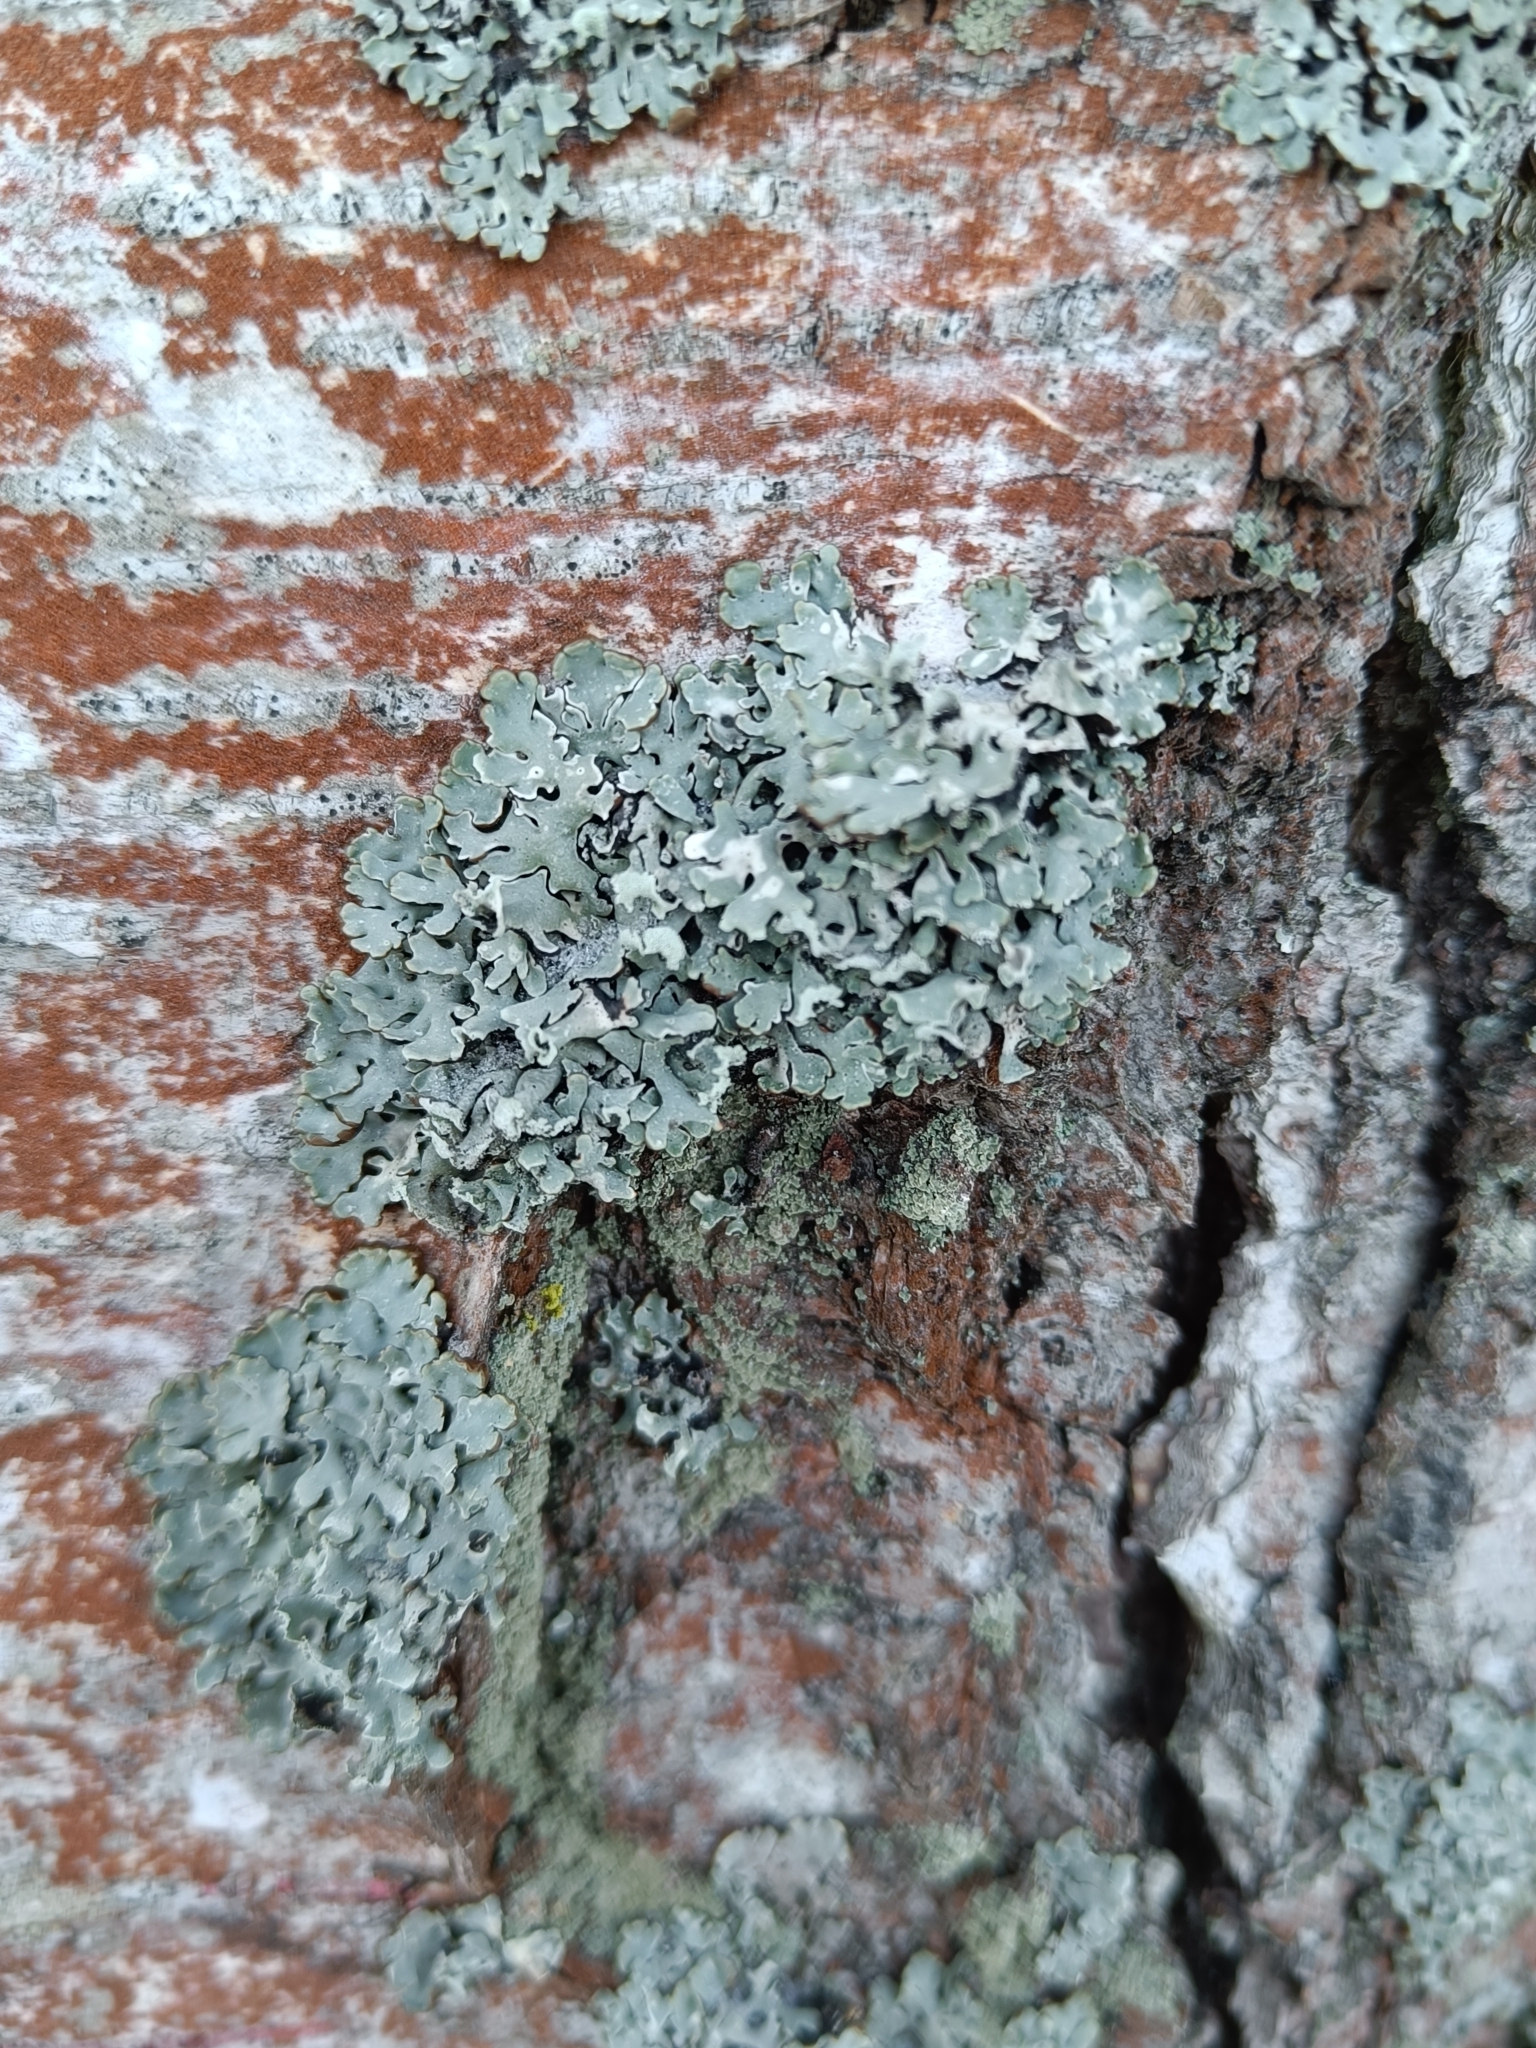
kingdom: Fungi
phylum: Ascomycota
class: Lecanoromycetes
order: Lecanorales
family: Parmeliaceae
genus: Hypogymnia
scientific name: Hypogymnia physodes
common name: Dark crottle
